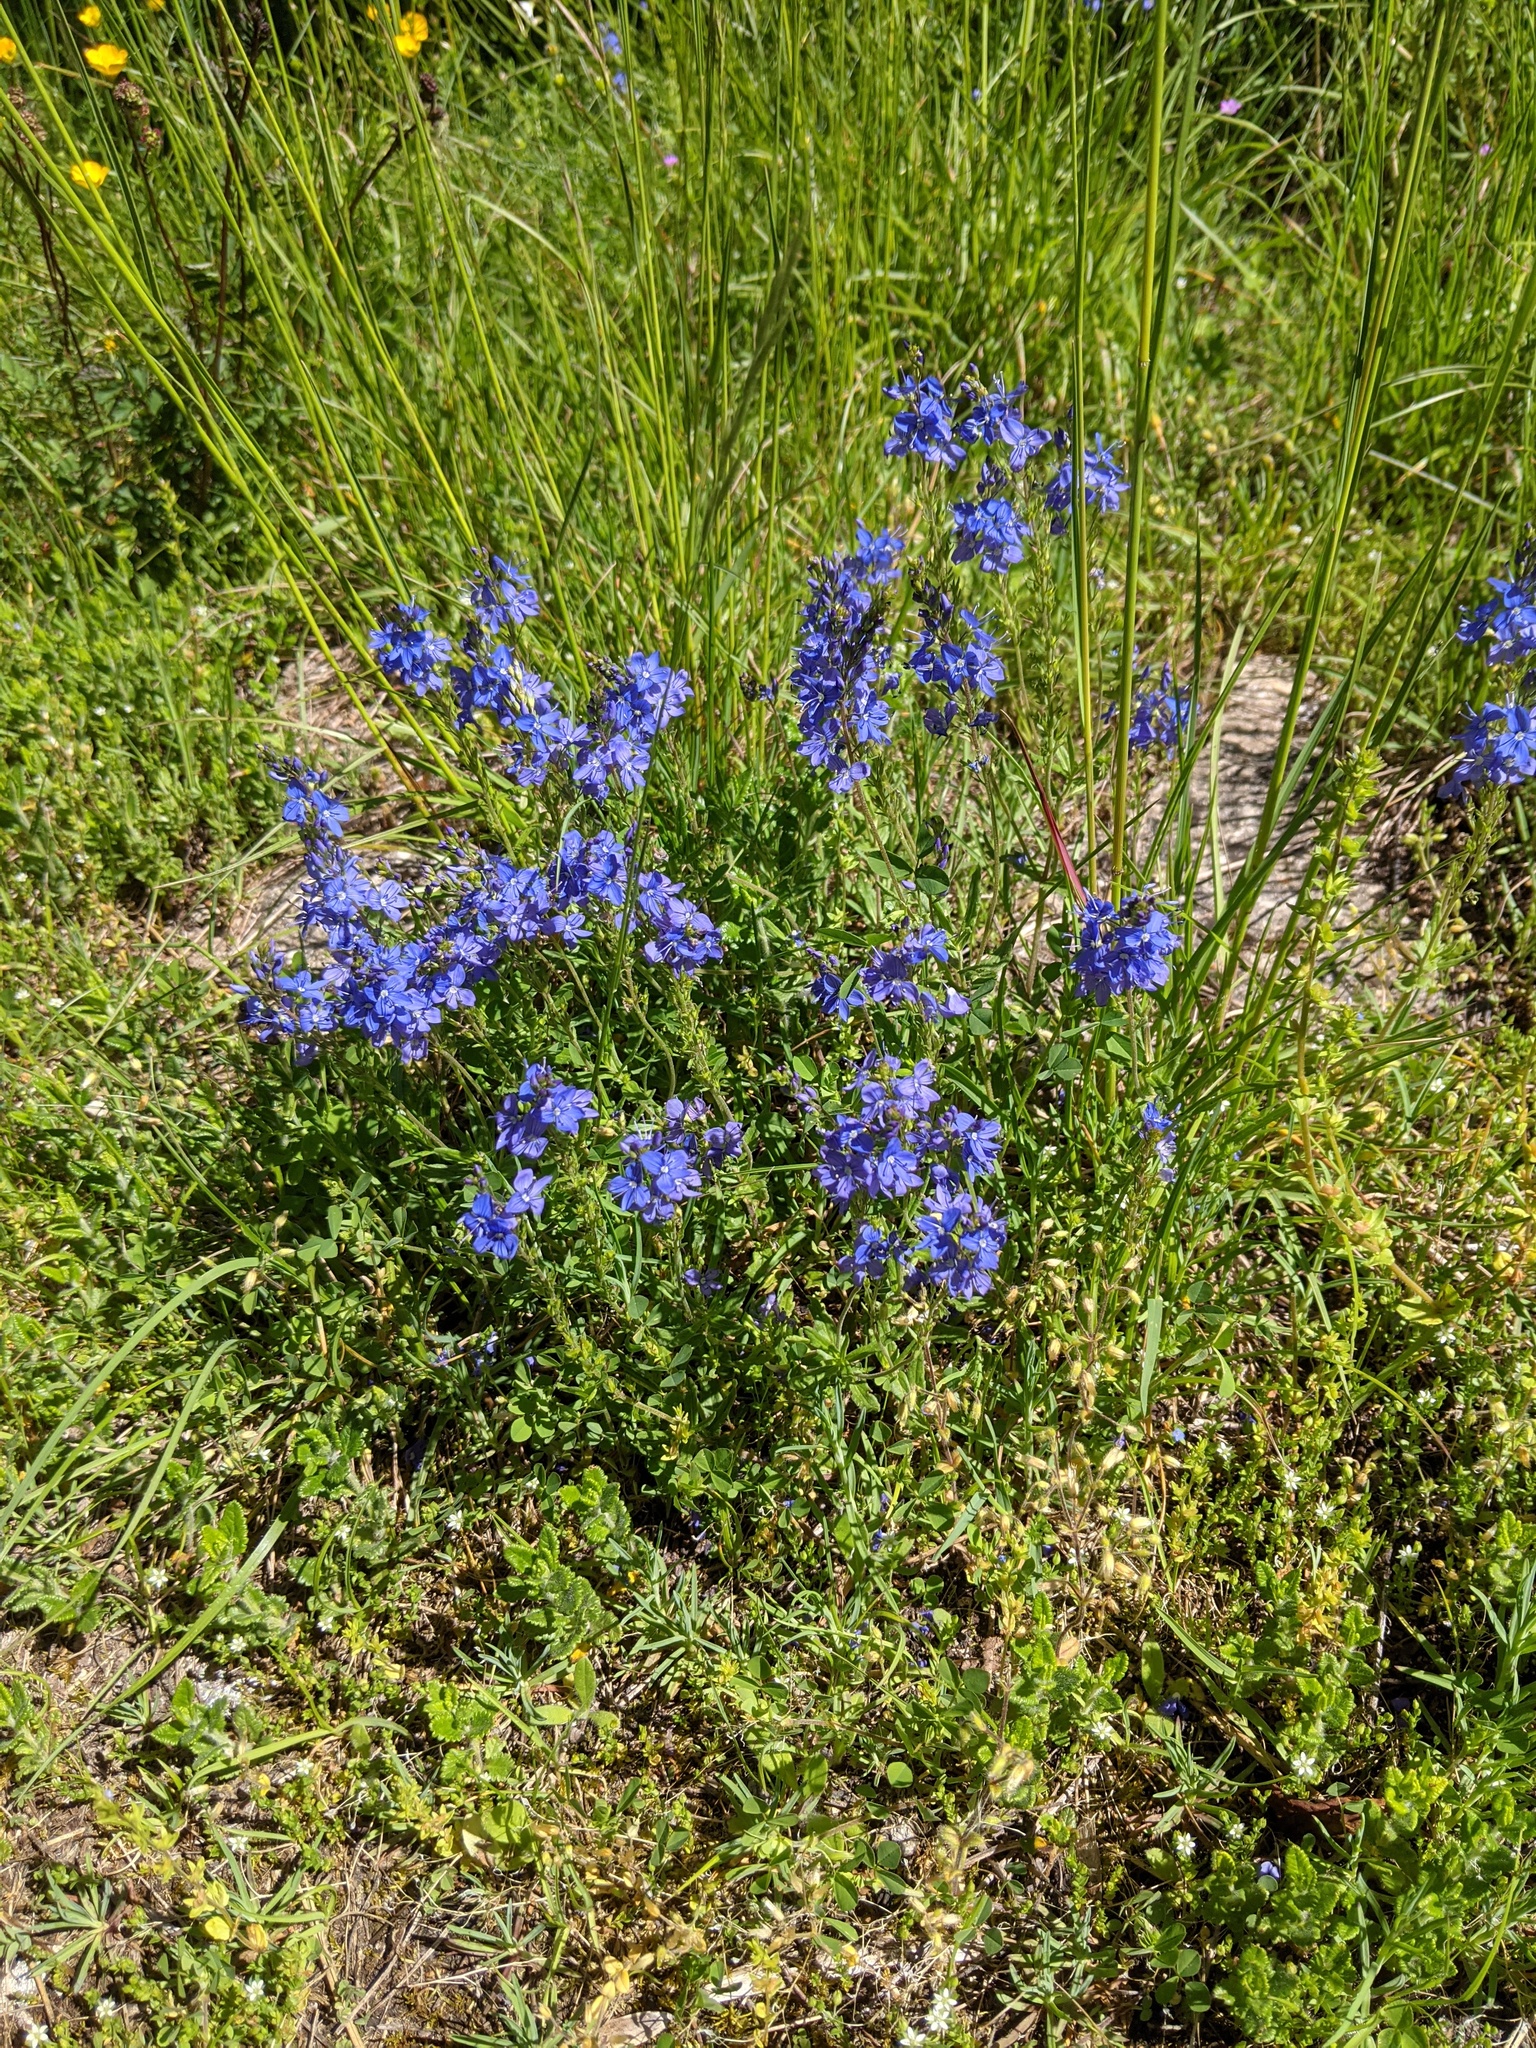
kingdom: Plantae
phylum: Tracheophyta
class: Magnoliopsida
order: Lamiales
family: Plantaginaceae
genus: Veronica
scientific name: Veronica teucrium
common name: Large speedwell
